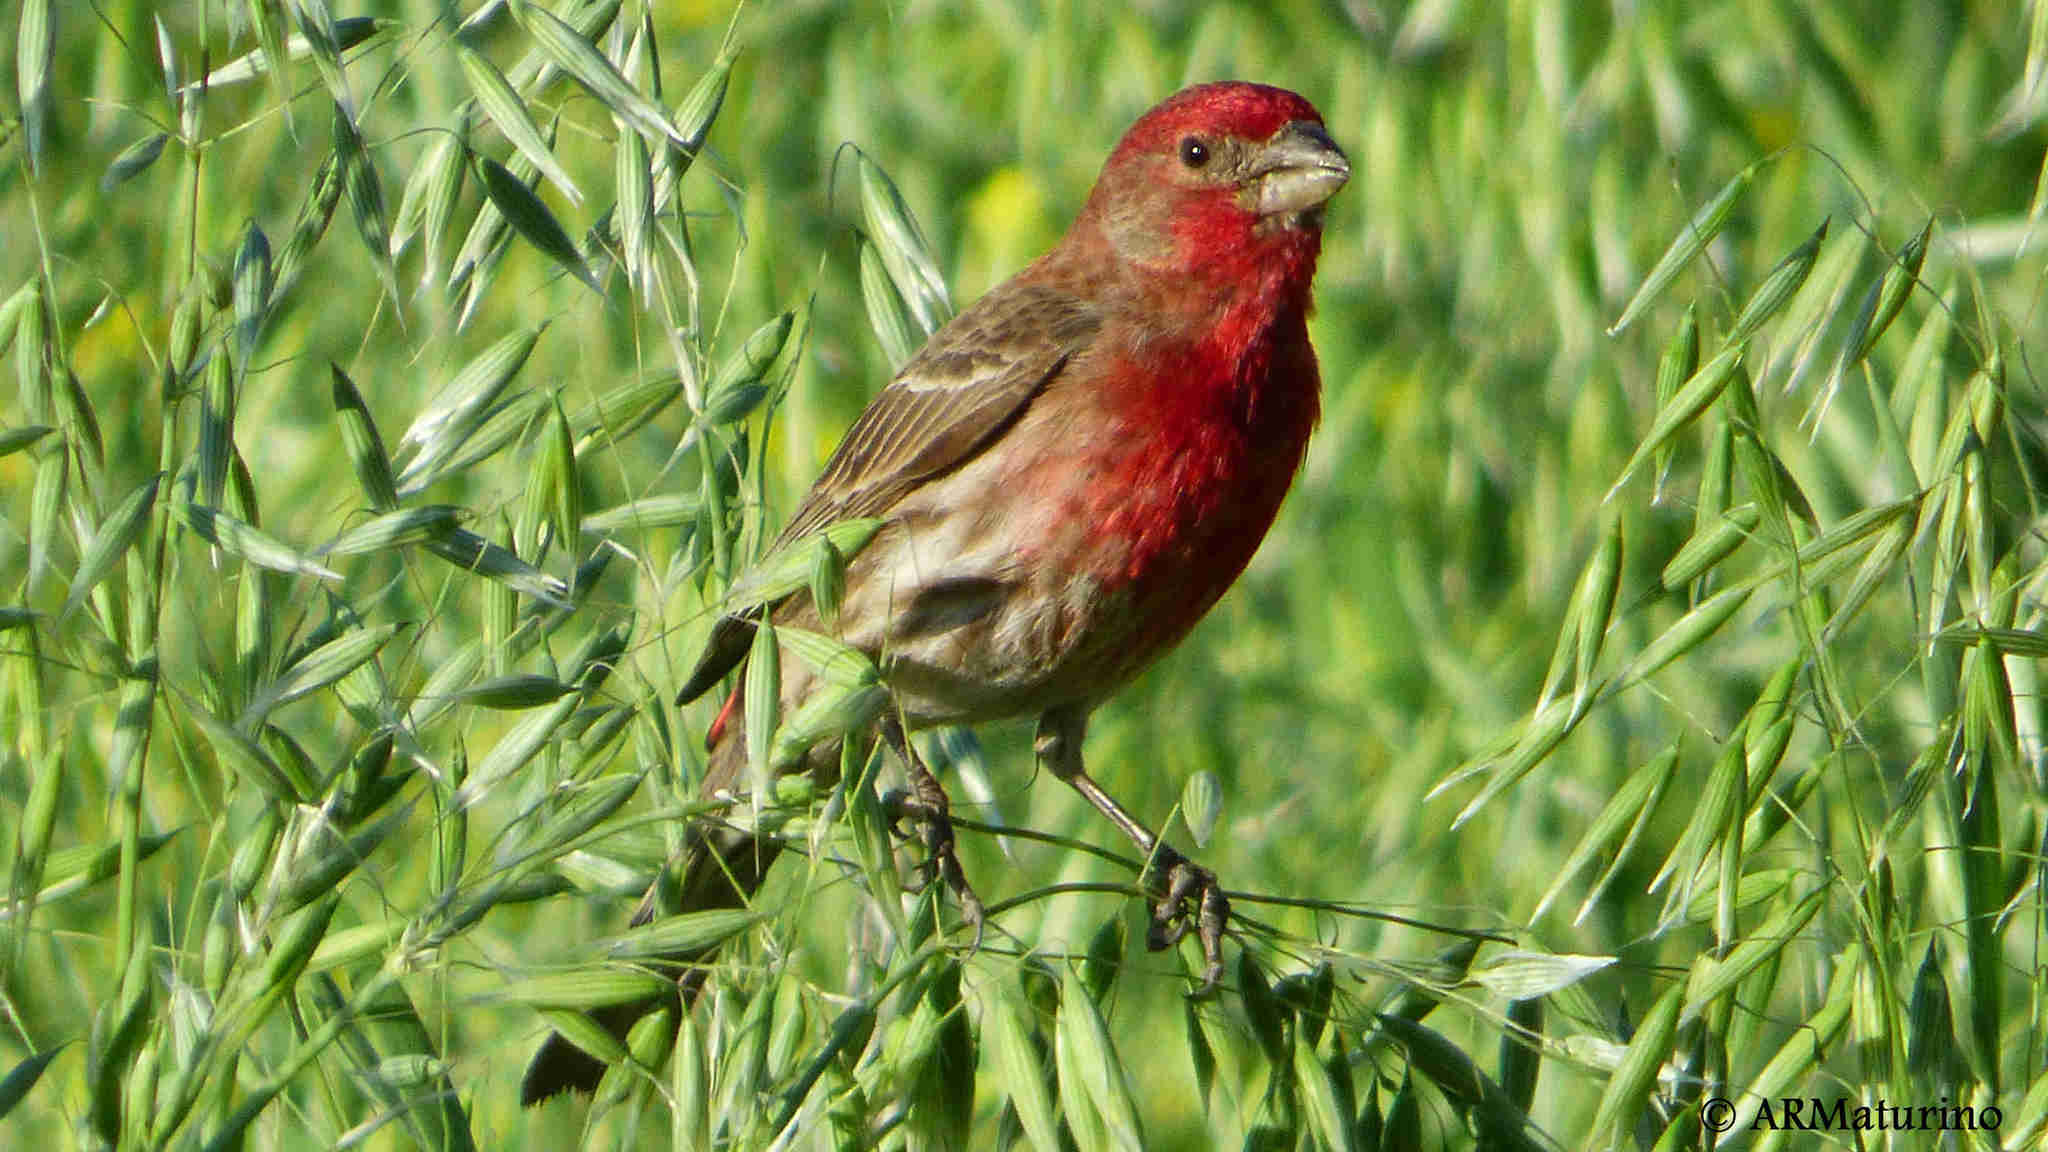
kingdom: Animalia
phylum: Chordata
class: Aves
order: Passeriformes
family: Fringillidae
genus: Haemorhous
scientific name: Haemorhous mexicanus
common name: House finch
